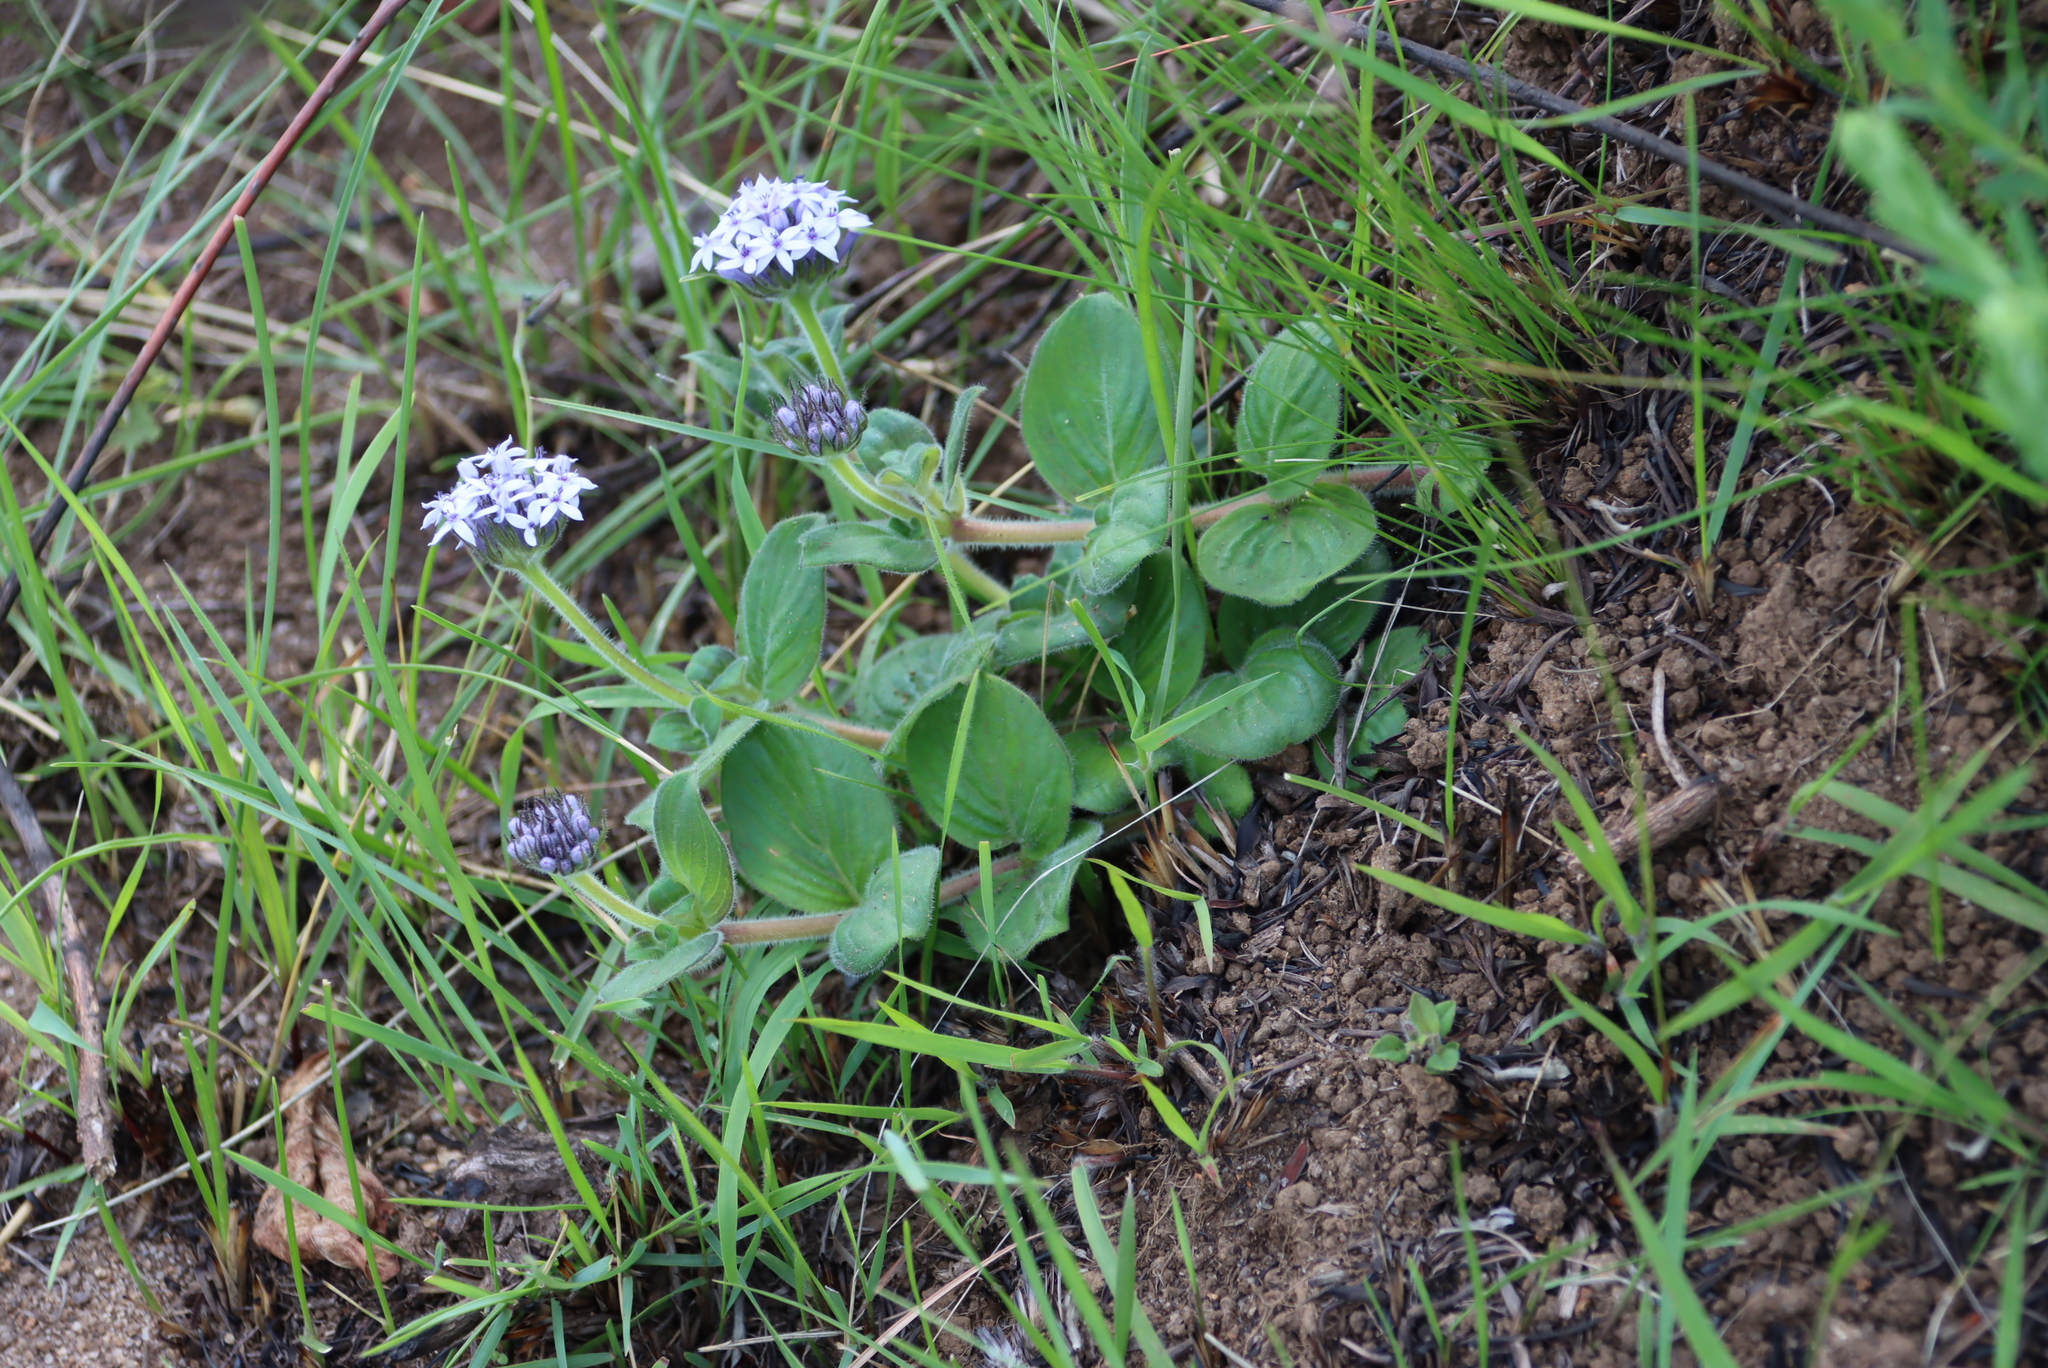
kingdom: Plantae
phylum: Tracheophyta
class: Magnoliopsida
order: Gentianales
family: Rubiaceae
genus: Pentanisia
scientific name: Pentanisia prunelloides
